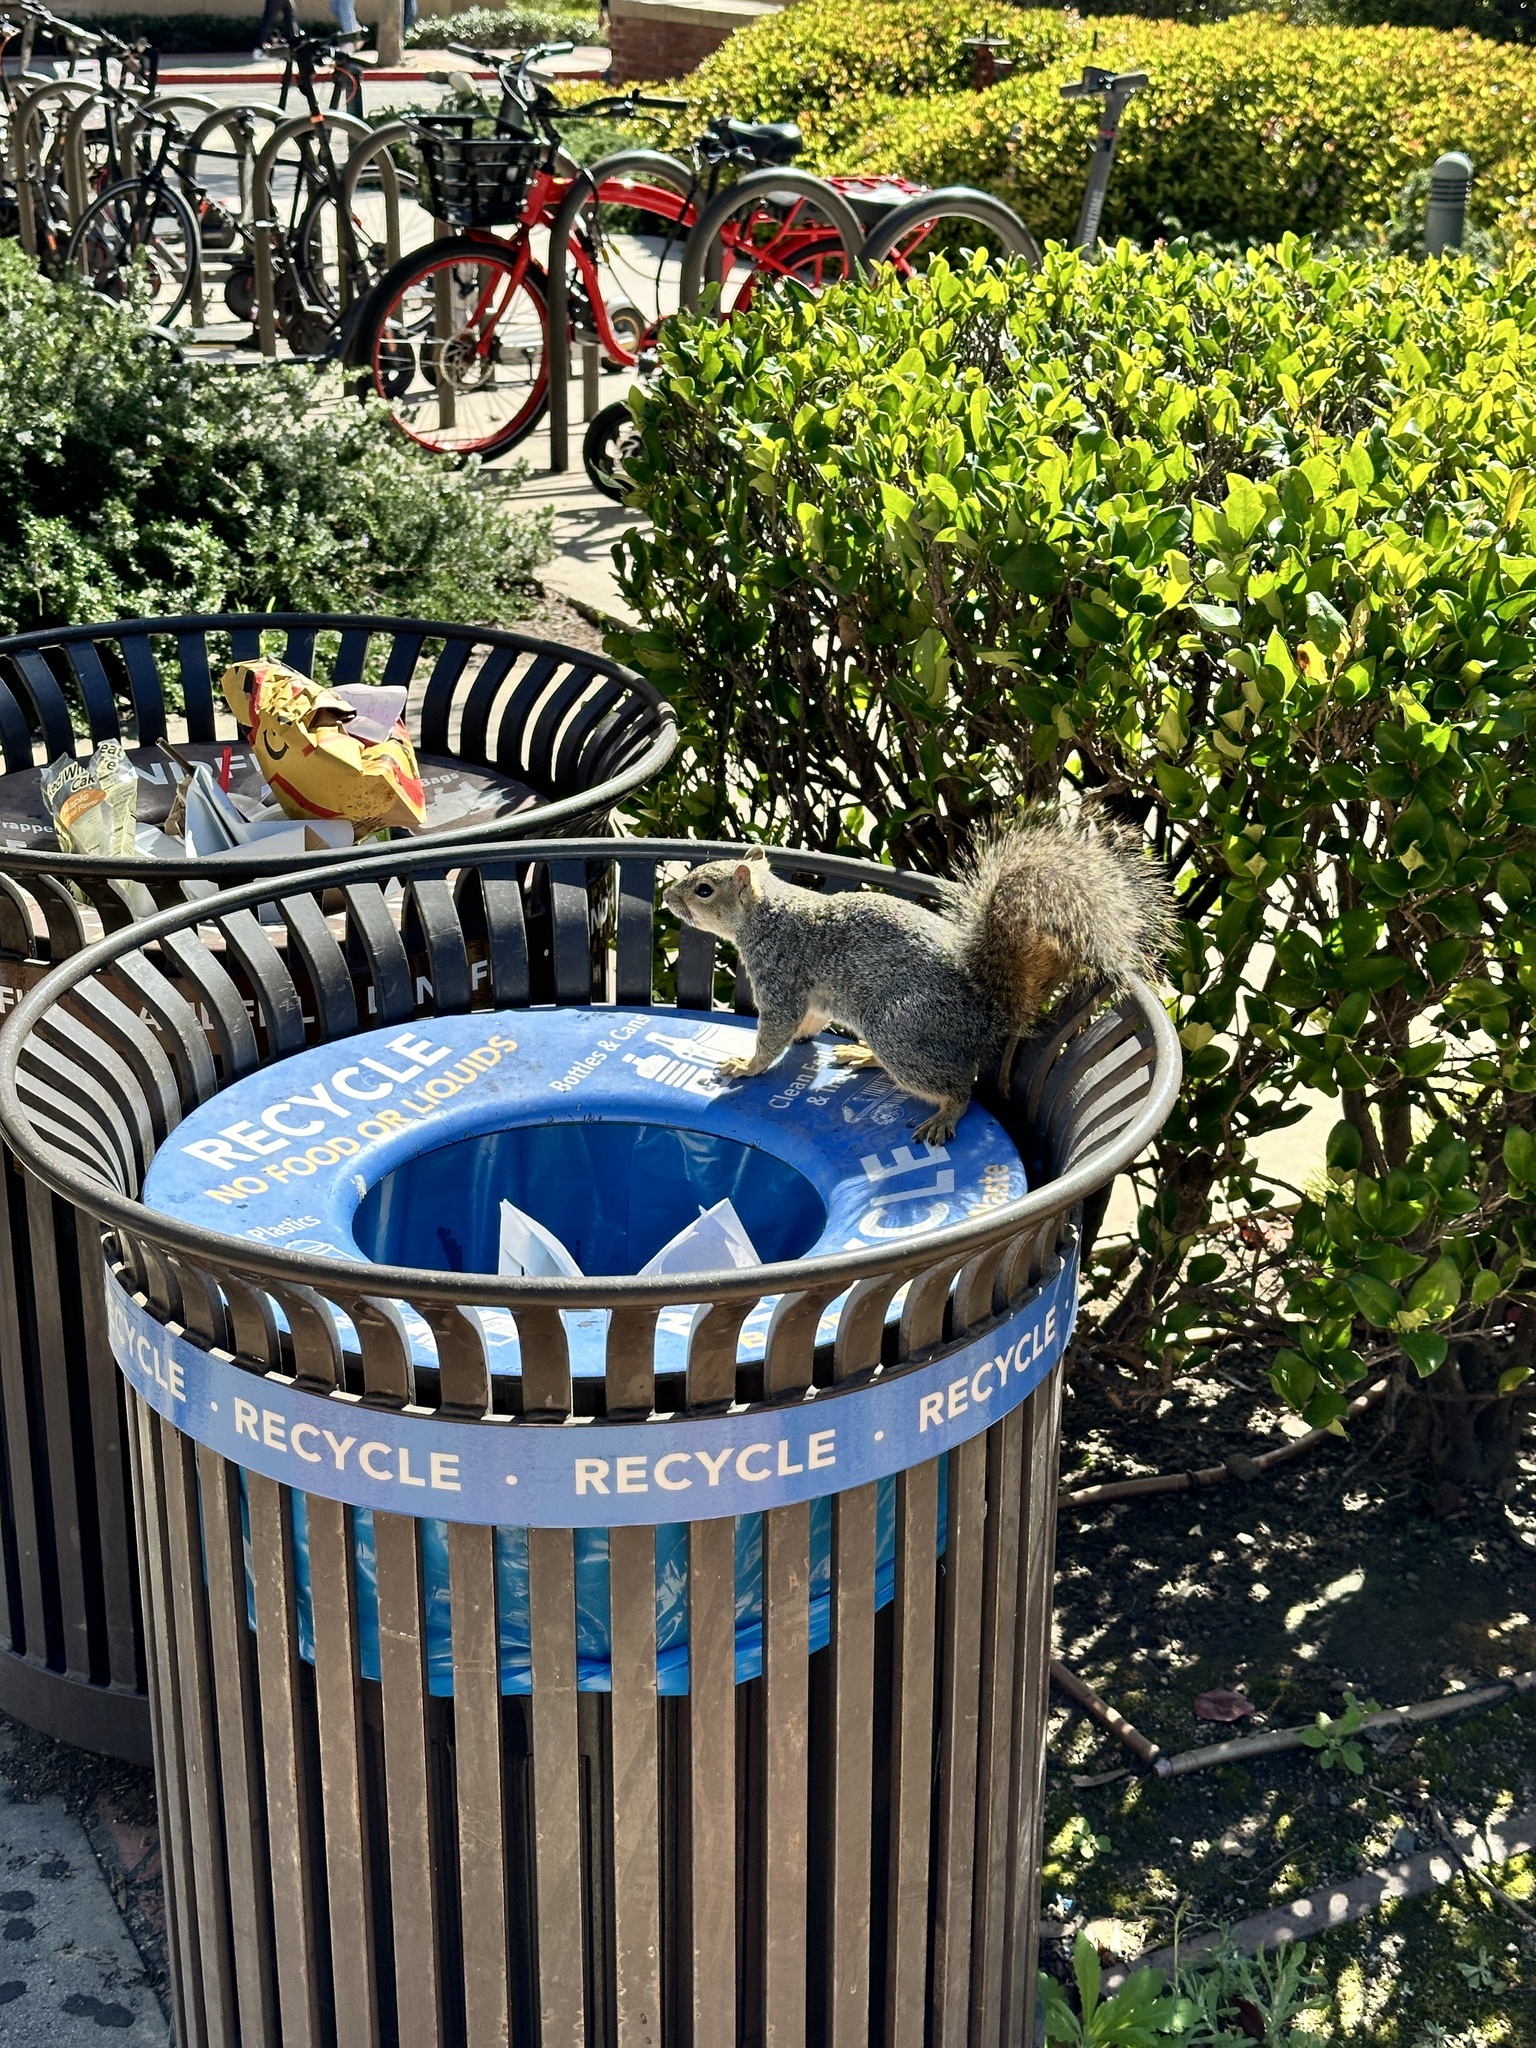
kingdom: Animalia
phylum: Chordata
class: Mammalia
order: Rodentia
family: Sciuridae
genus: Sciurus
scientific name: Sciurus niger
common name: Fox squirrel
